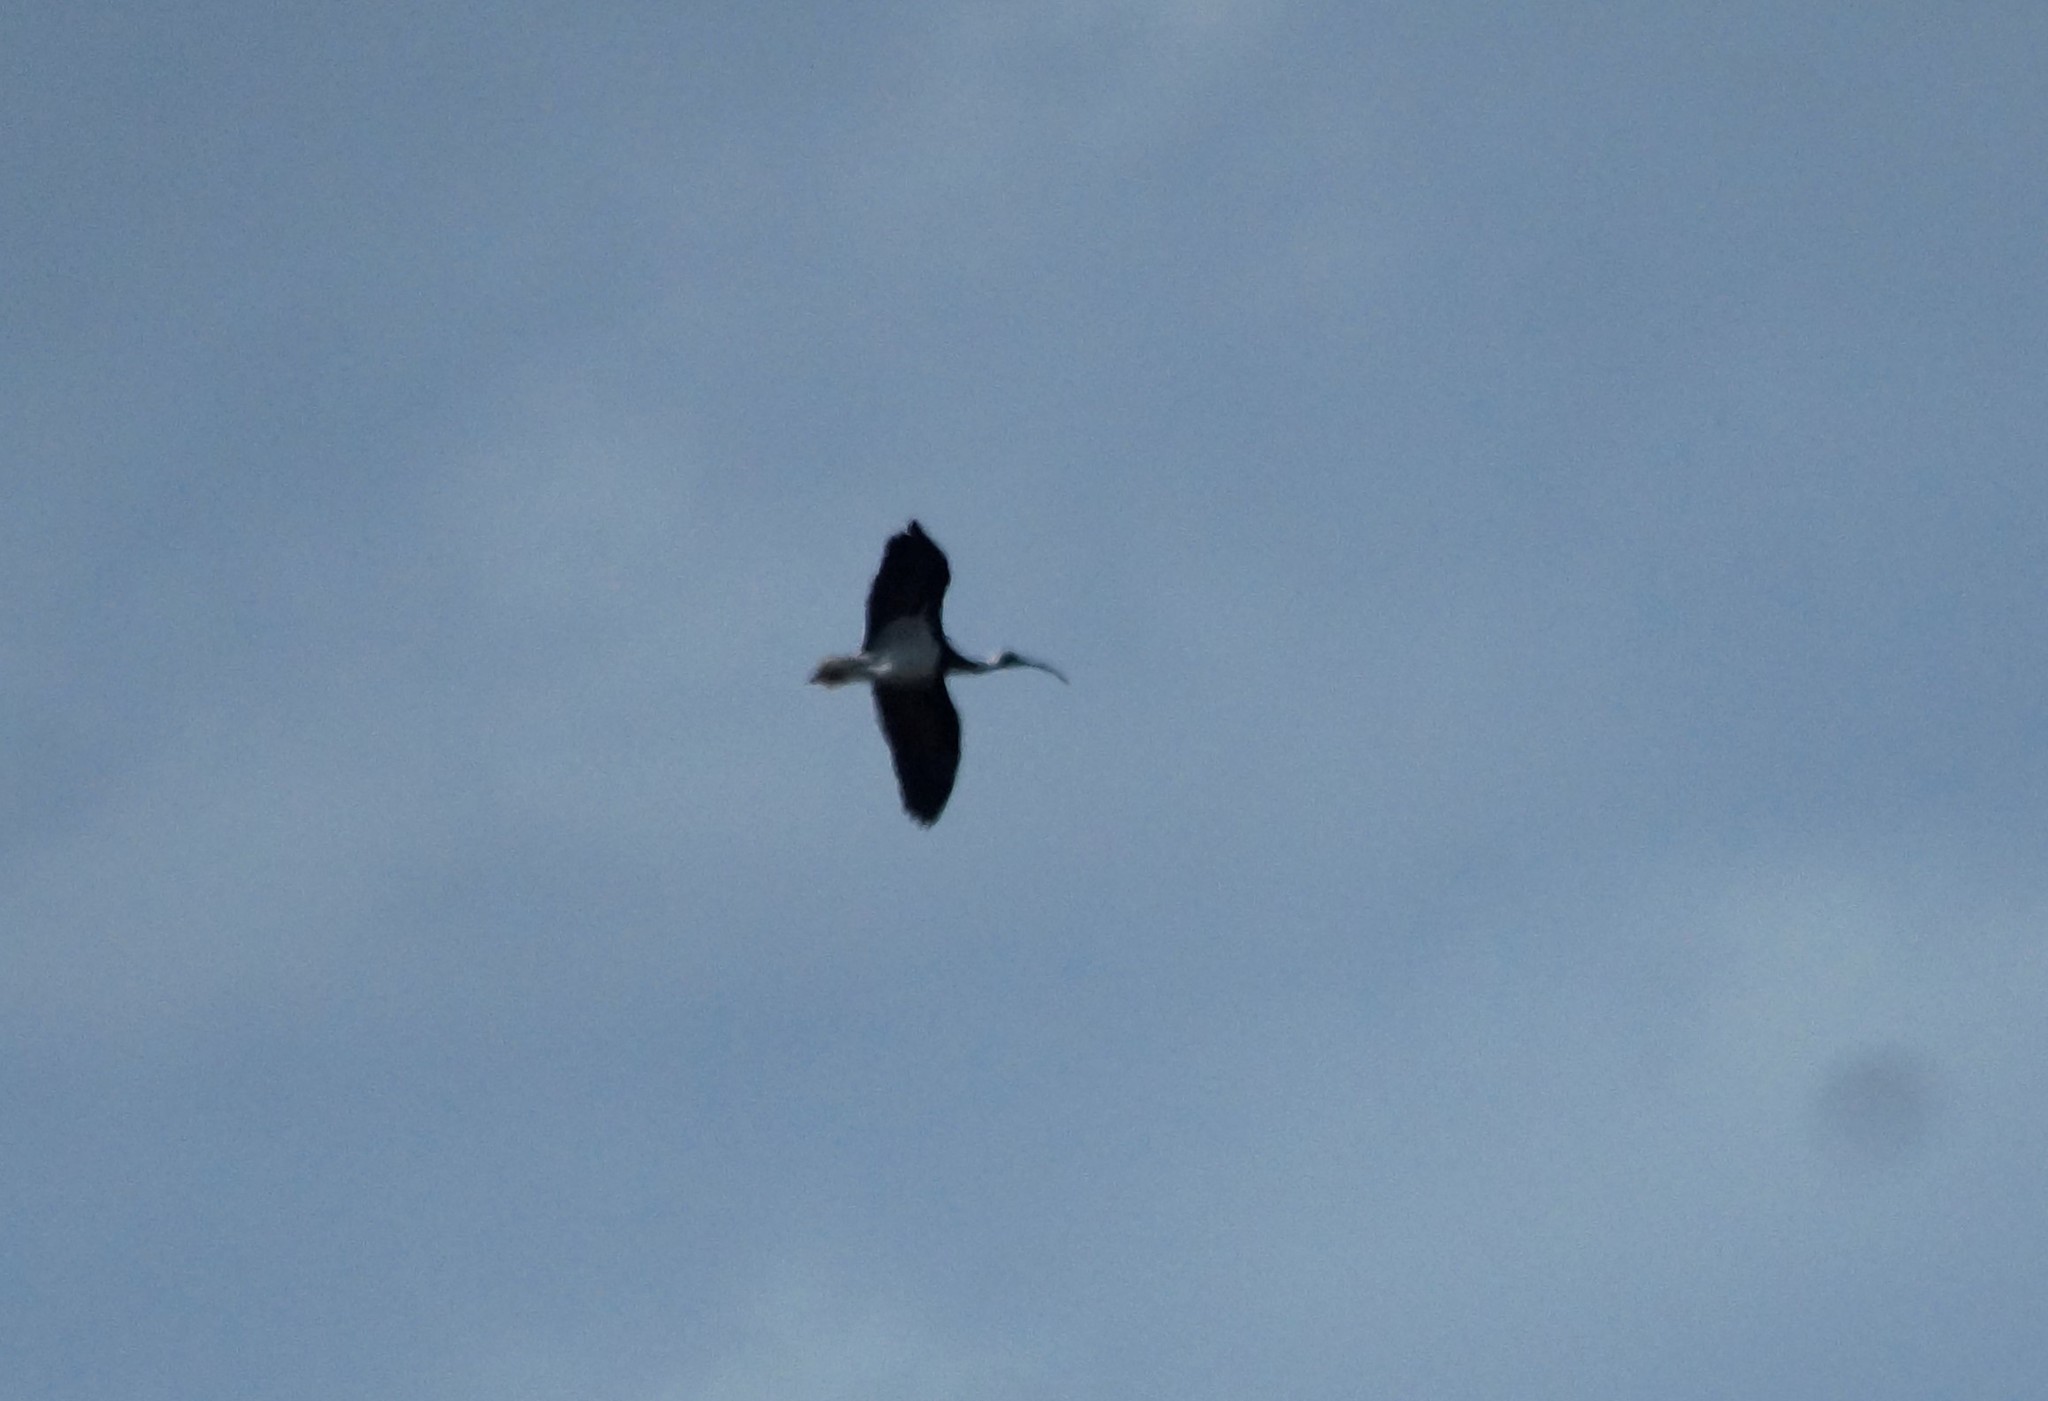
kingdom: Animalia
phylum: Chordata
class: Aves
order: Pelecaniformes
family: Threskiornithidae
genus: Threskiornis
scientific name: Threskiornis spinicollis
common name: Straw-necked ibis
